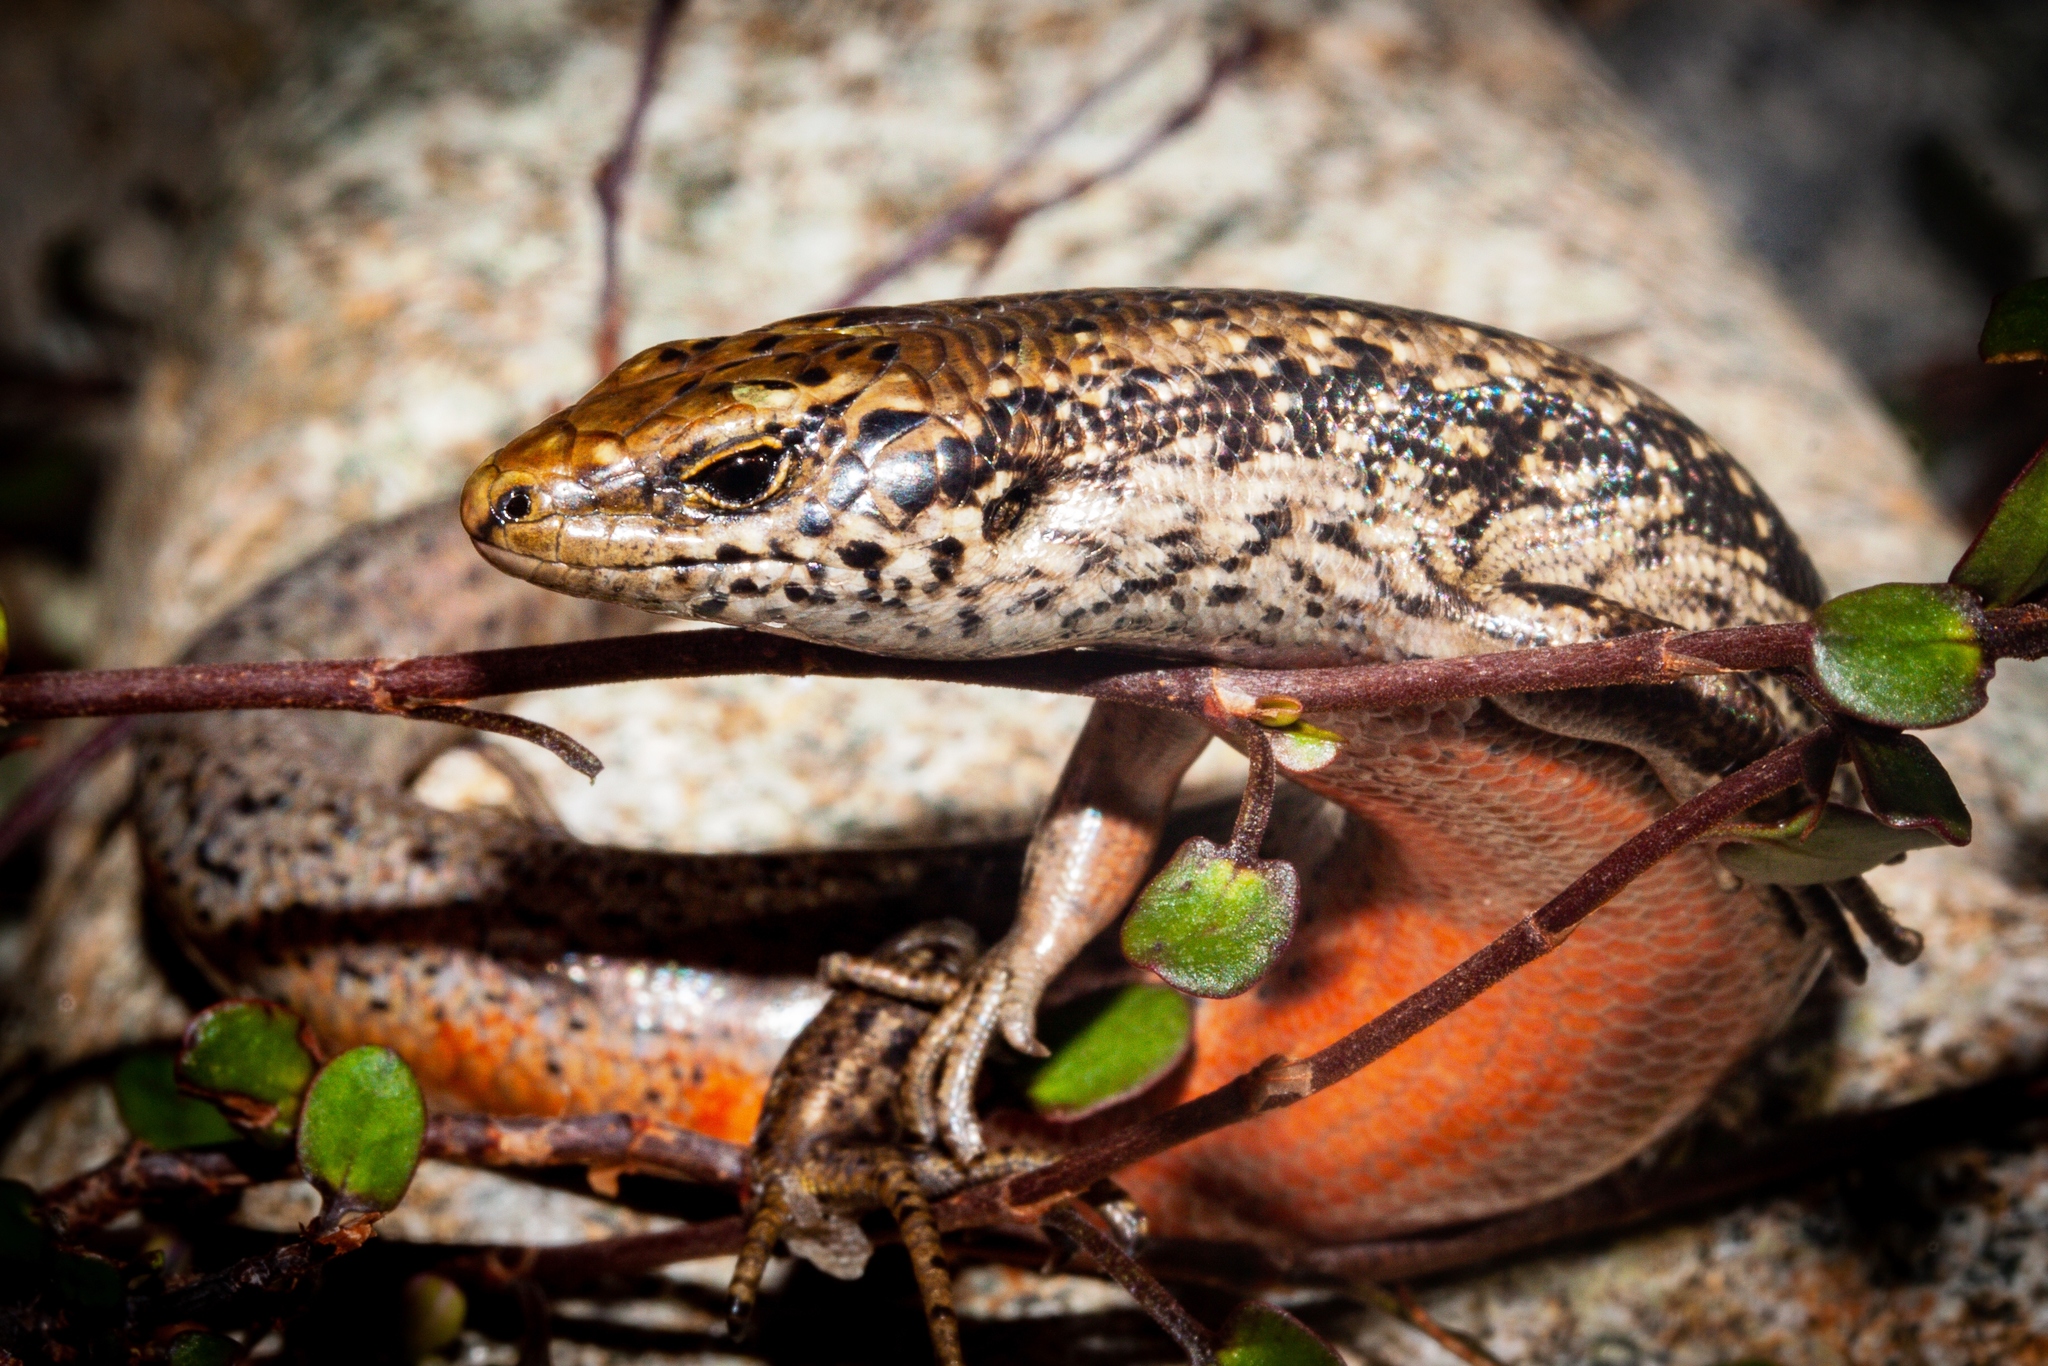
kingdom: Animalia
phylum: Chordata
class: Squamata
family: Scincidae
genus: Oligosoma
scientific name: Oligosoma kokowai
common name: Northern spotted skink
